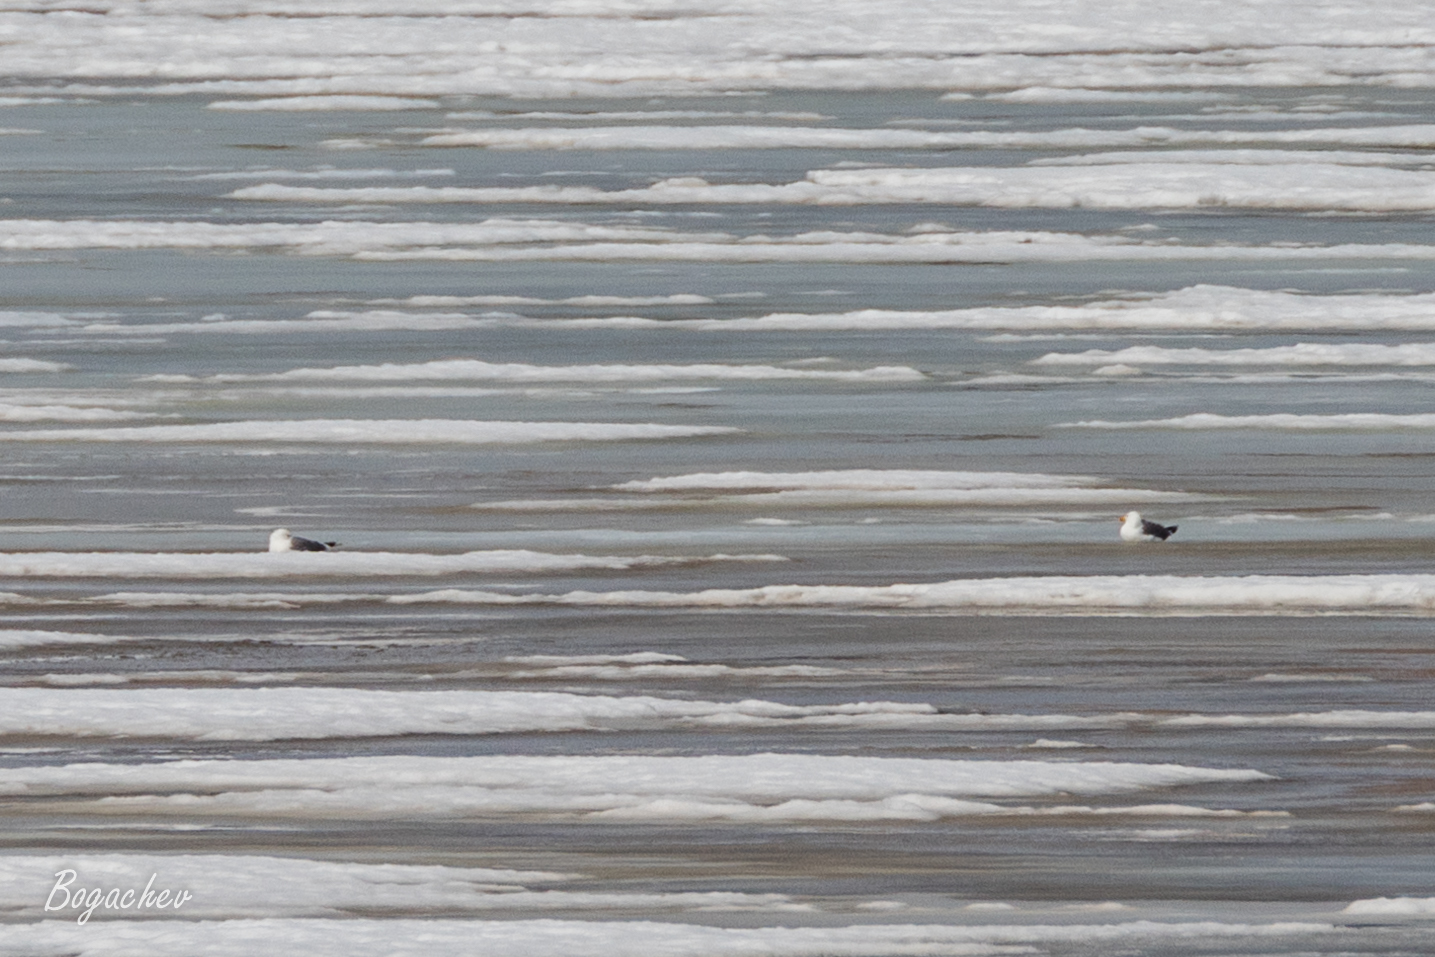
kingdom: Animalia
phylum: Chordata
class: Aves
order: Charadriiformes
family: Laridae
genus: Larus
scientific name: Larus fuscus
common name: Lesser black-backed gull
